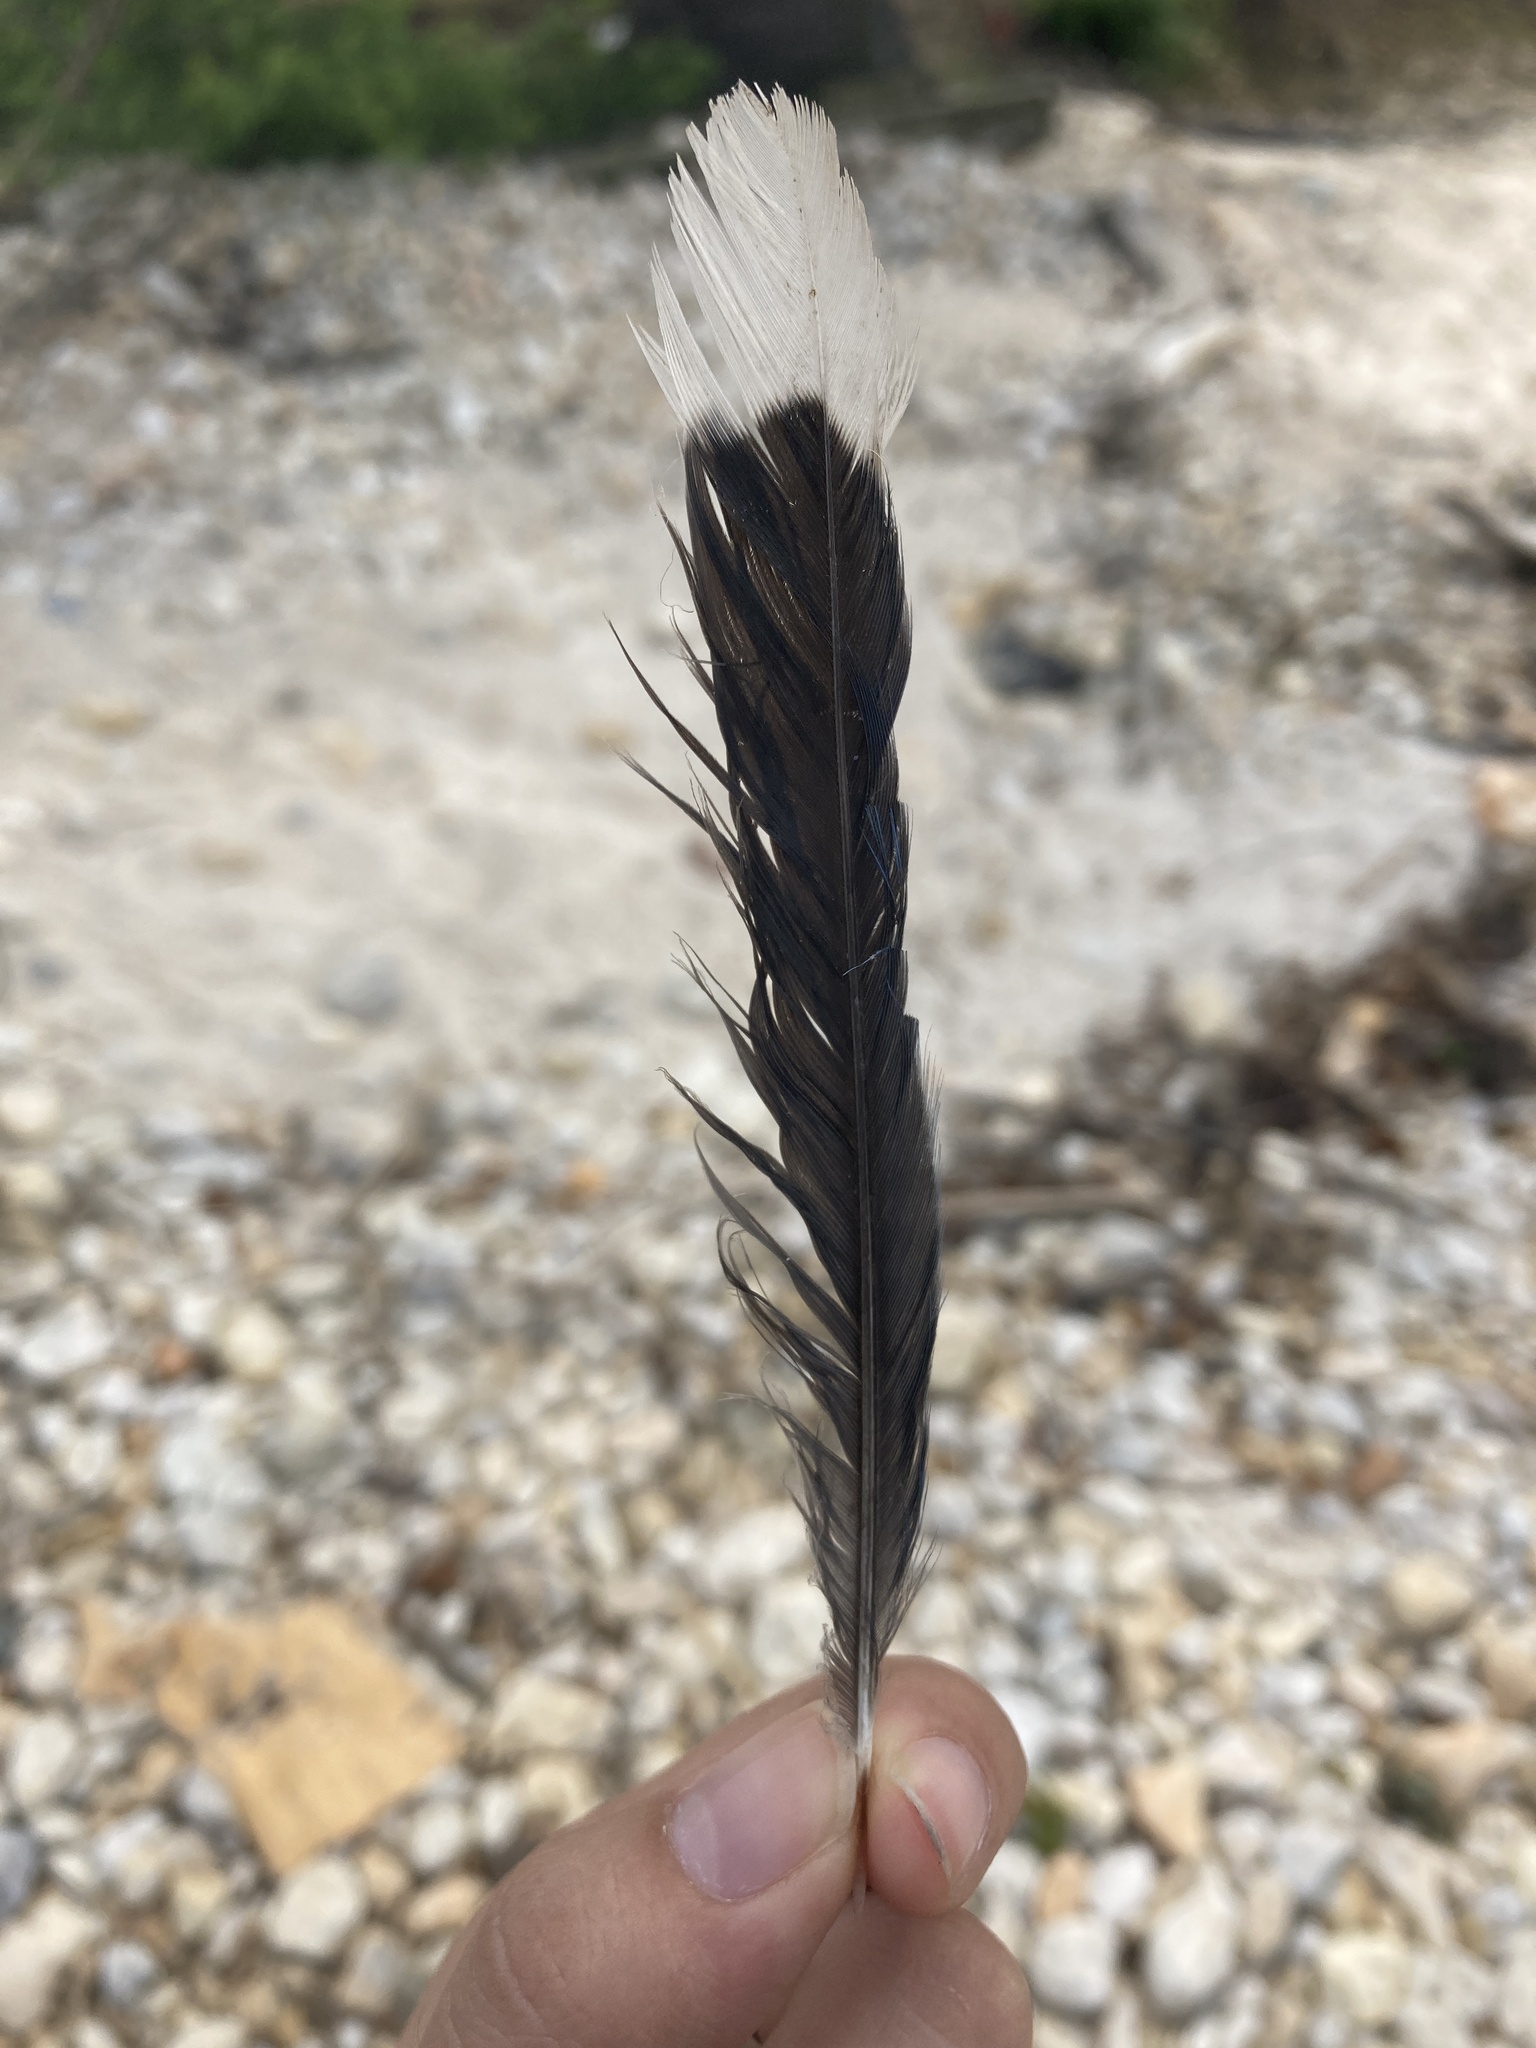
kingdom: Animalia
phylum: Chordata
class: Aves
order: Passeriformes
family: Corvidae
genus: Cyanocitta
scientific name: Cyanocitta cristata
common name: Blue jay
